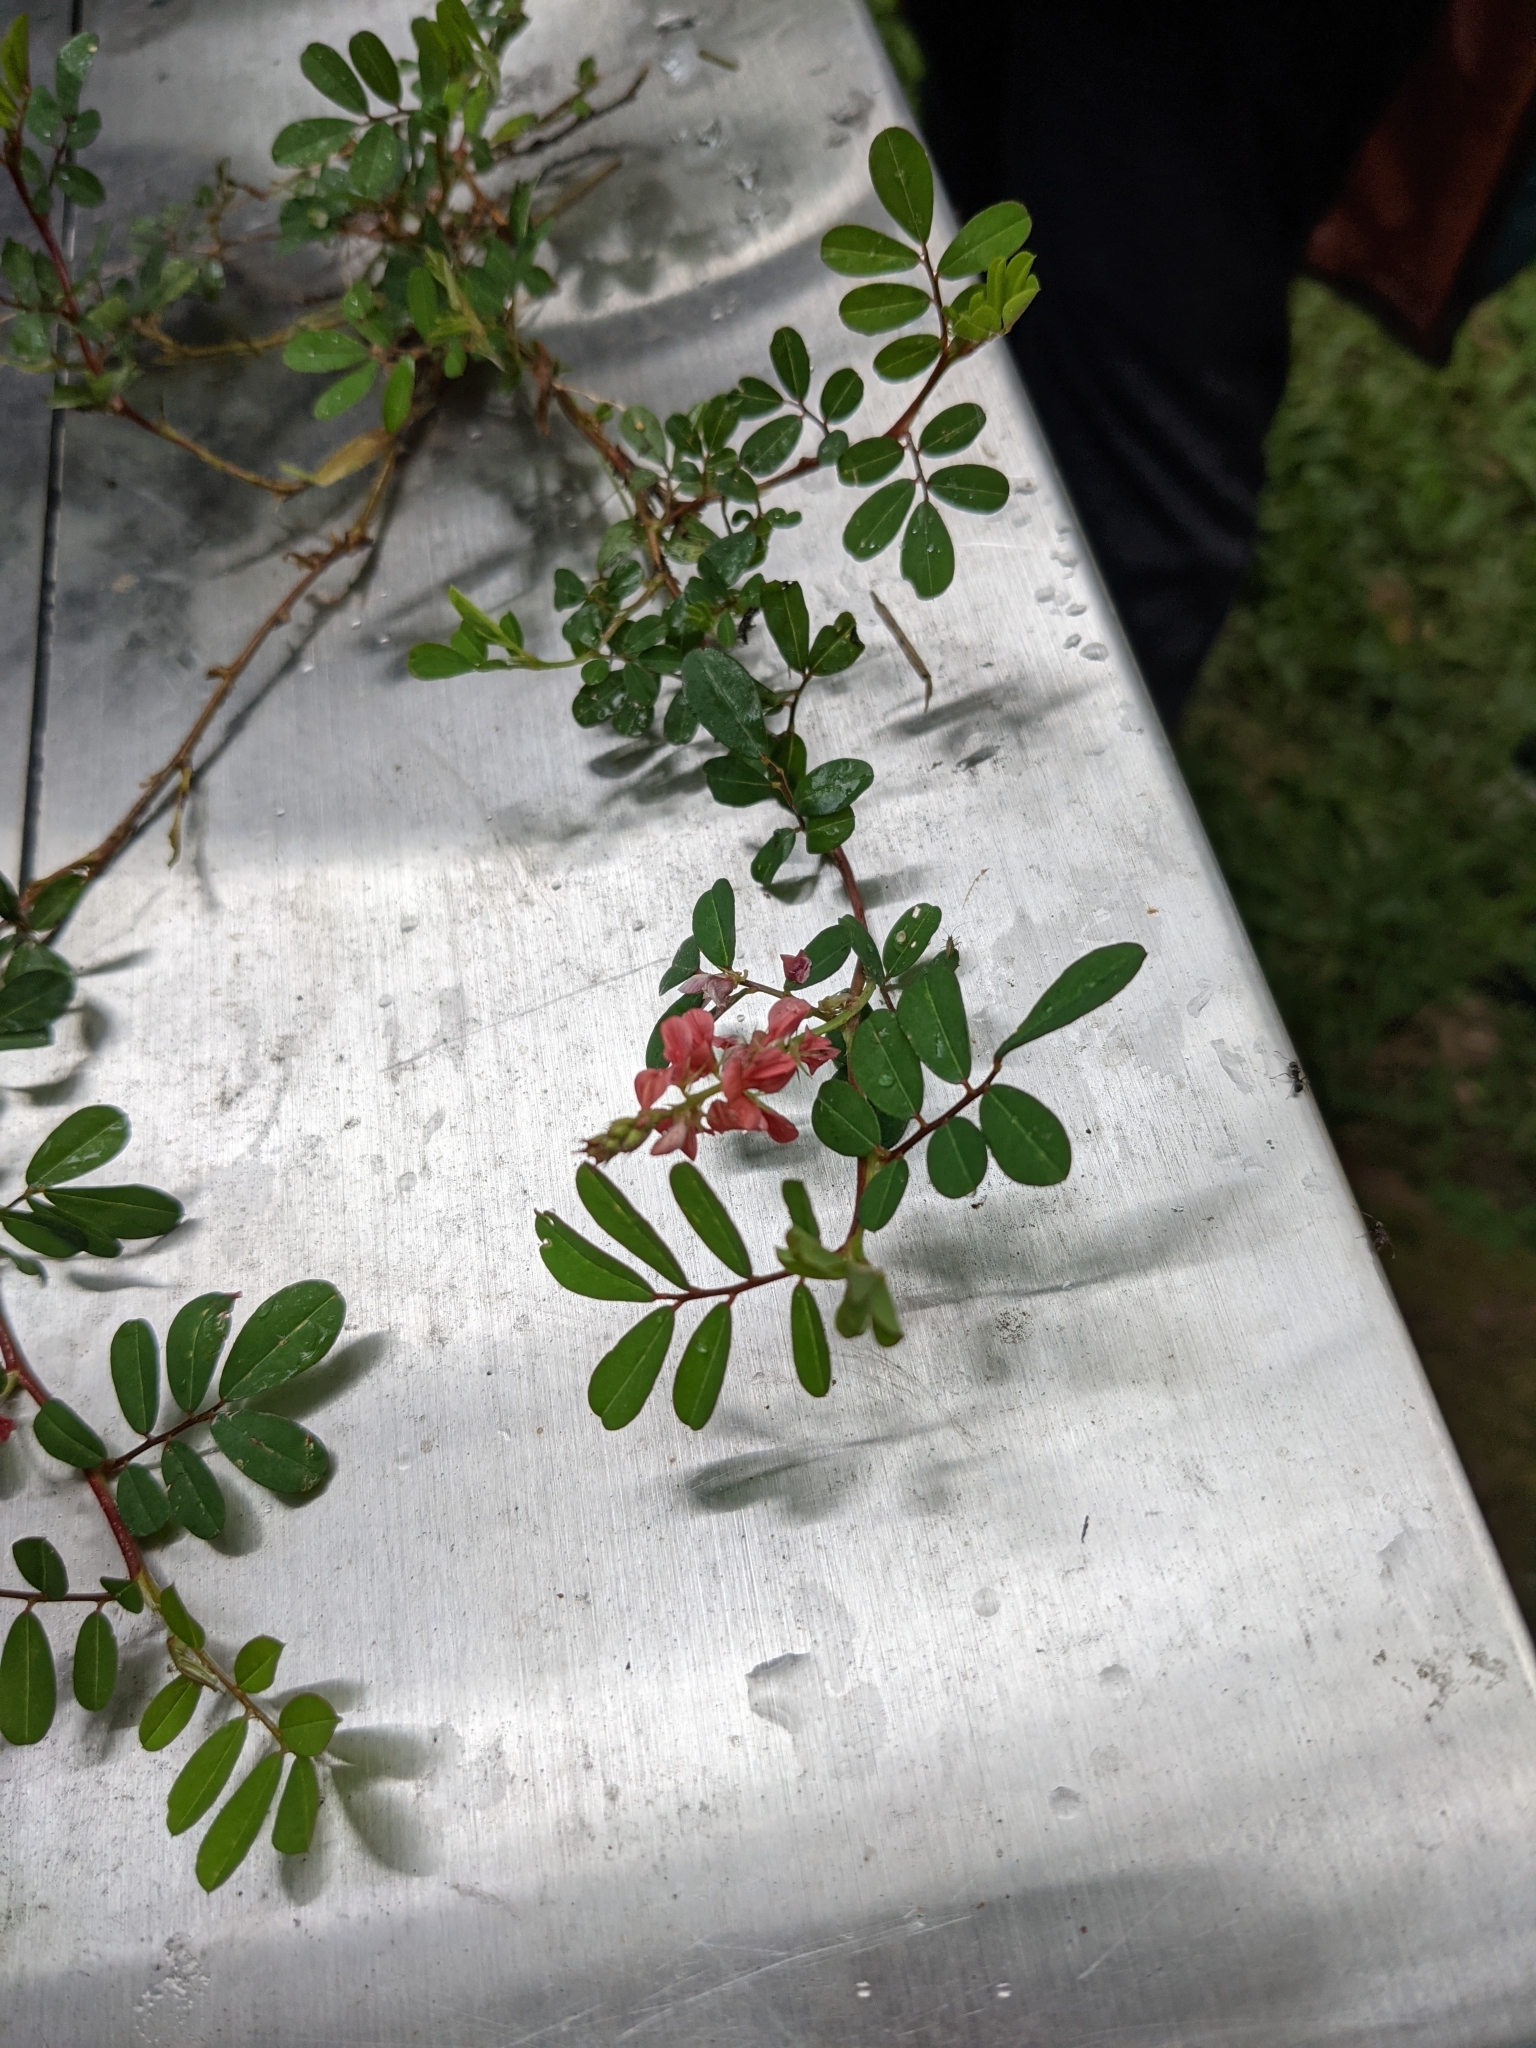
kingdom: Plantae
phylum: Tracheophyta
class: Magnoliopsida
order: Fabales
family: Fabaceae
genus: Indigofera
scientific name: Indigofera hendecaphylla
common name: Trailing indigo
